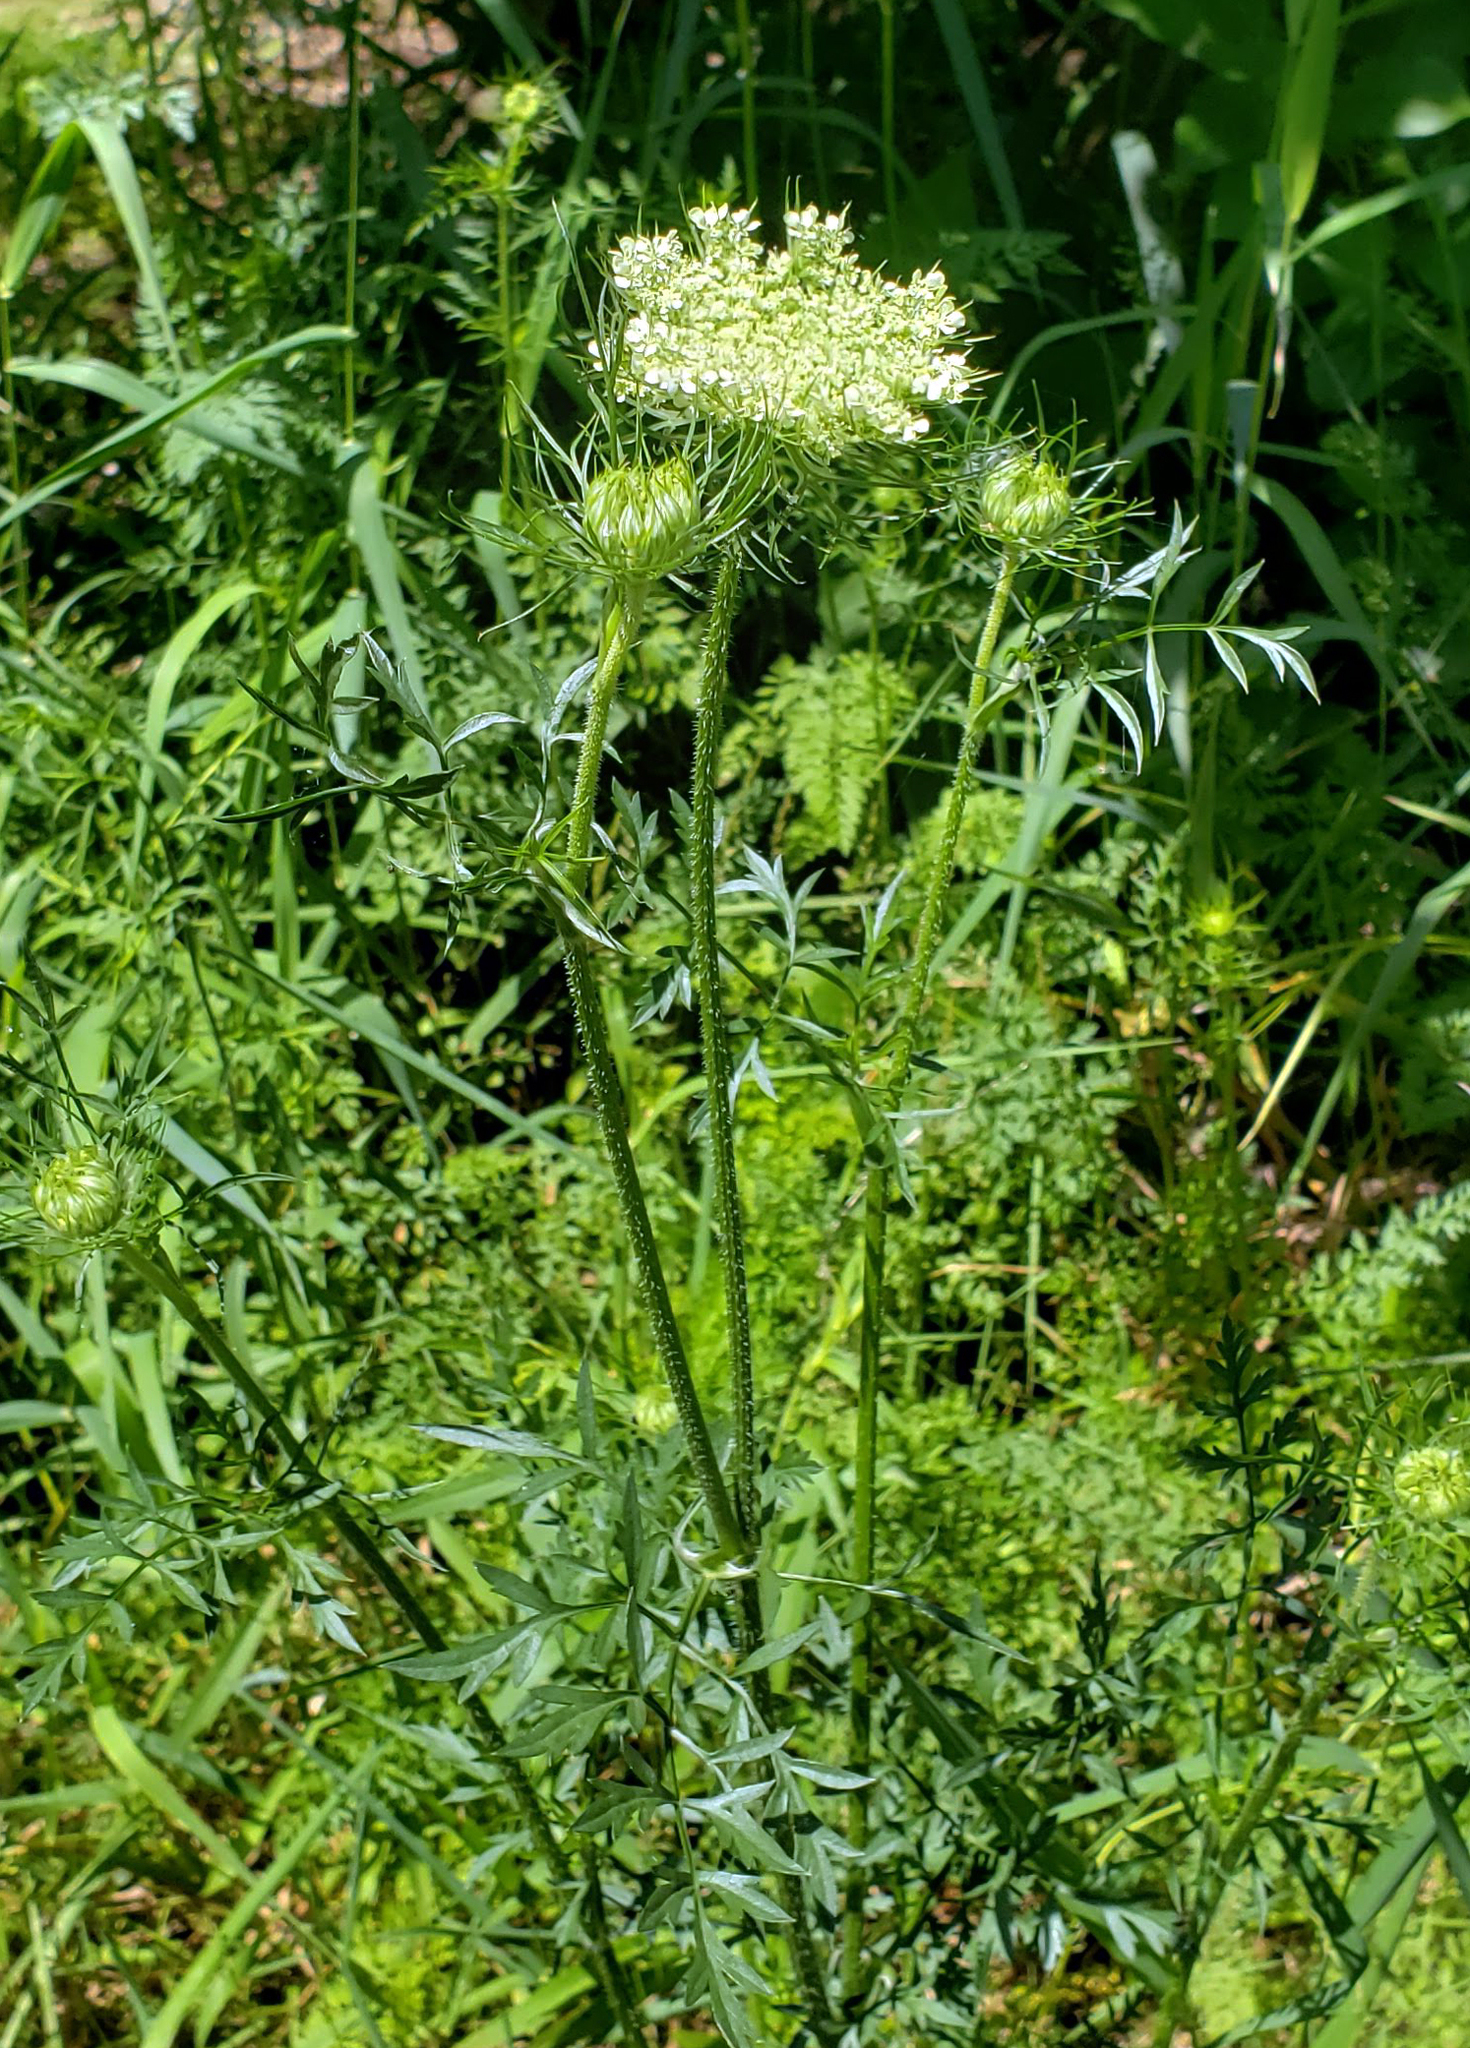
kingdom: Plantae
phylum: Tracheophyta
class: Magnoliopsida
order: Apiales
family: Apiaceae
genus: Daucus
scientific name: Daucus carota
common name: Wild carrot
